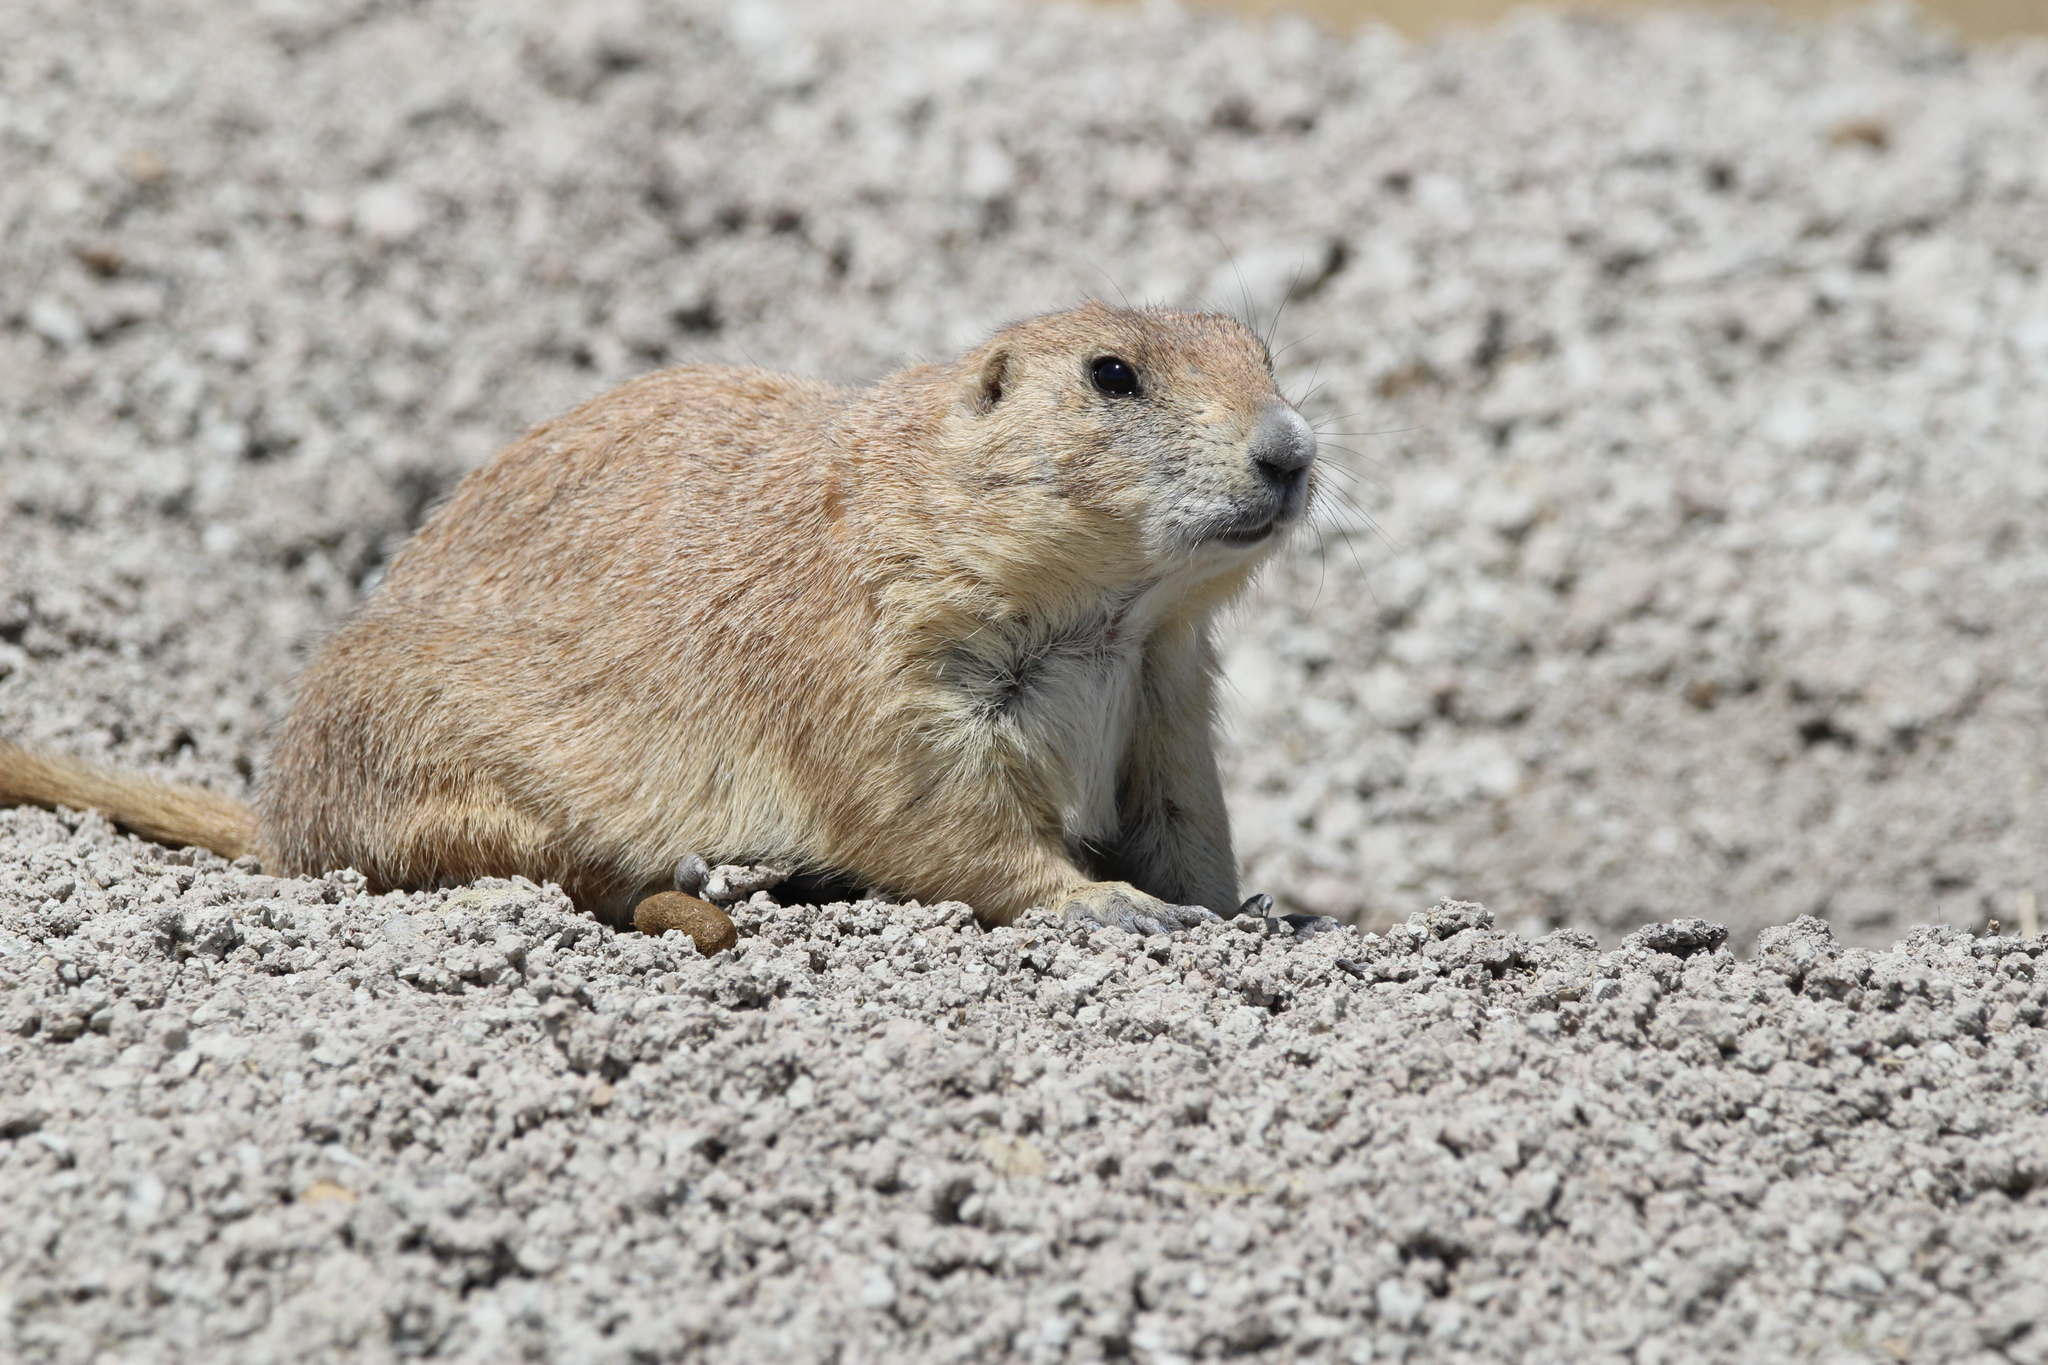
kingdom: Animalia
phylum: Chordata
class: Mammalia
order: Rodentia
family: Sciuridae
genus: Cynomys
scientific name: Cynomys ludovicianus
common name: Black-tailed prairie dog
